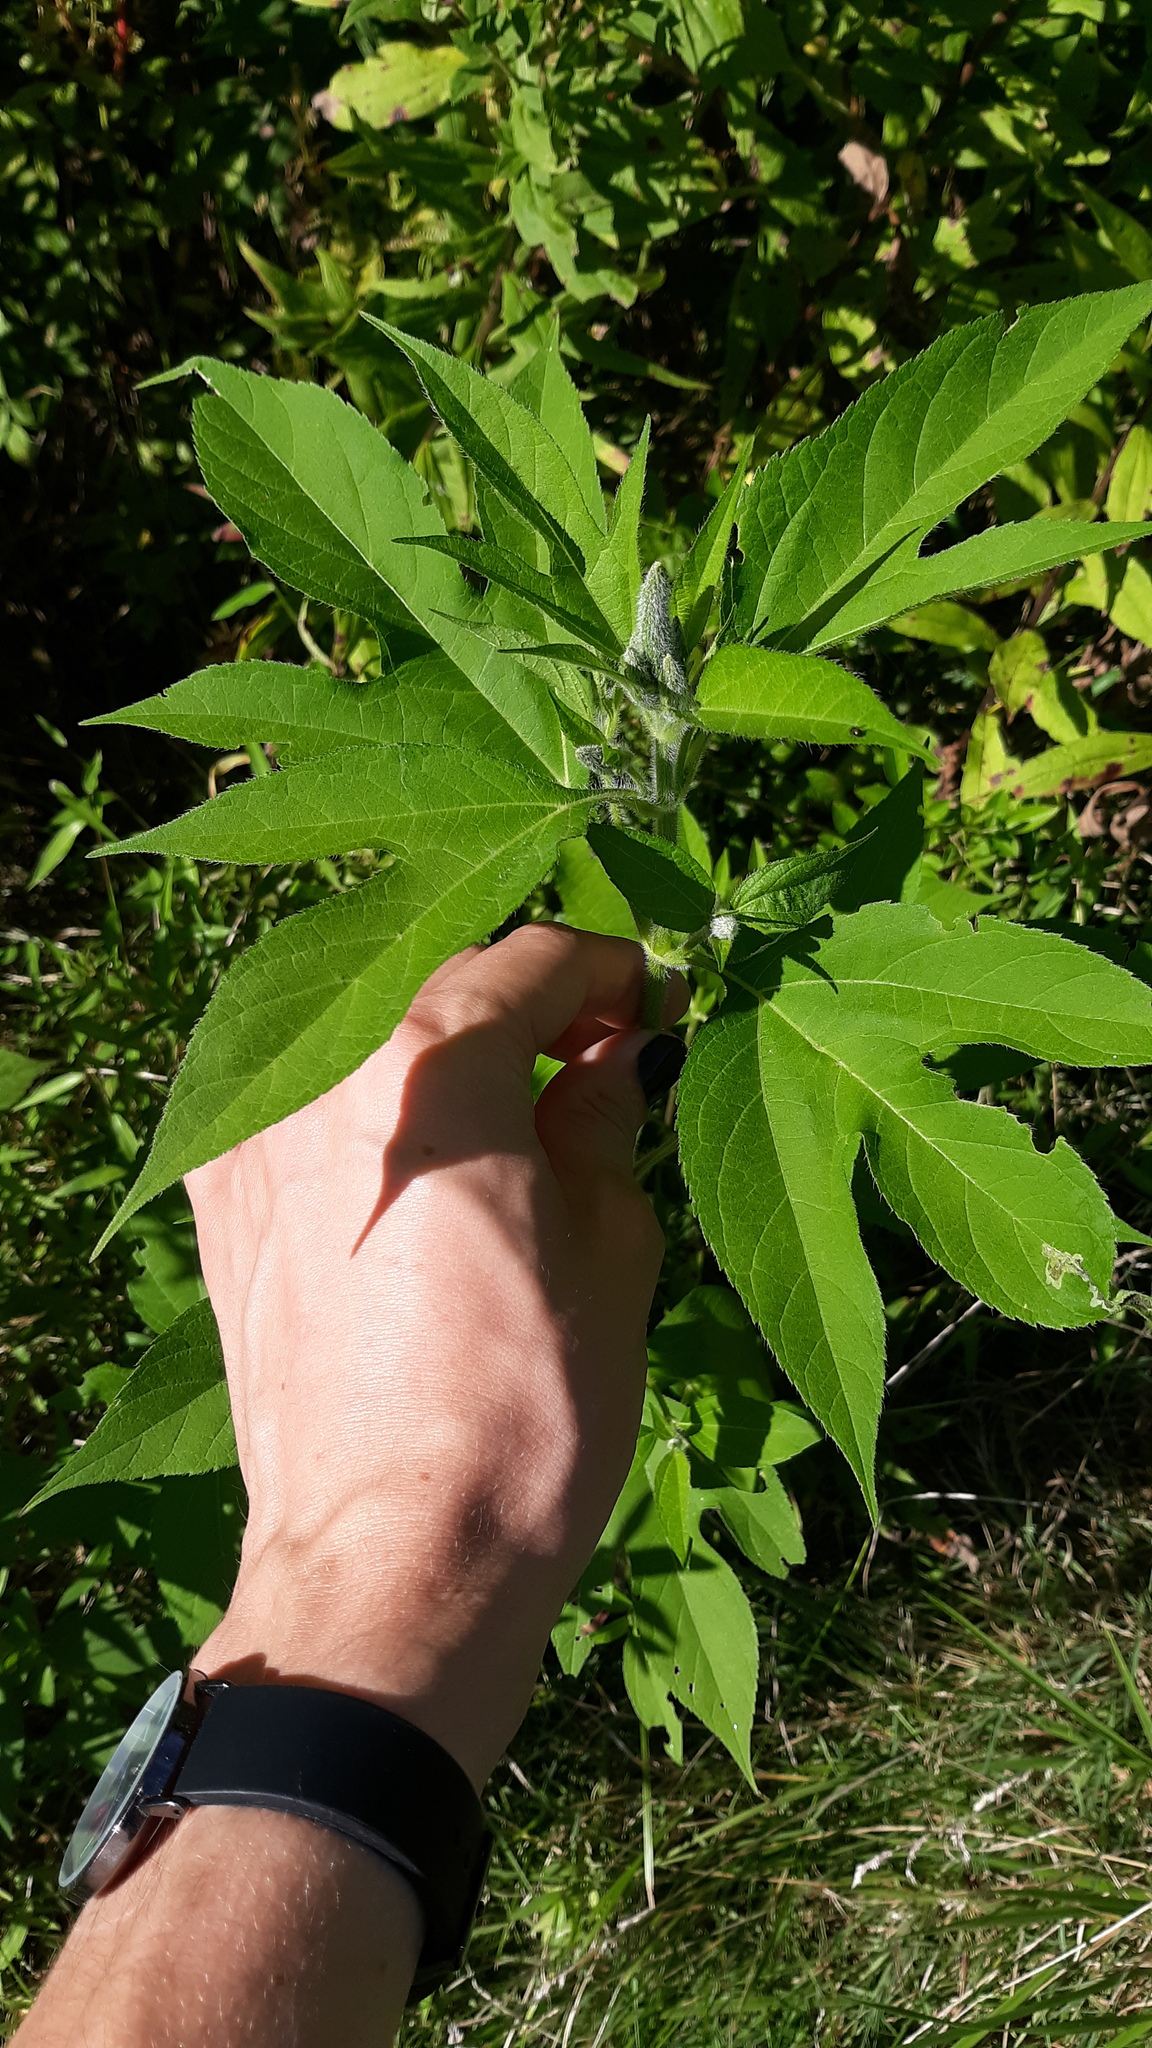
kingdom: Plantae
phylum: Tracheophyta
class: Magnoliopsida
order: Asterales
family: Asteraceae
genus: Ambrosia
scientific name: Ambrosia trifida
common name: Giant ragweed
